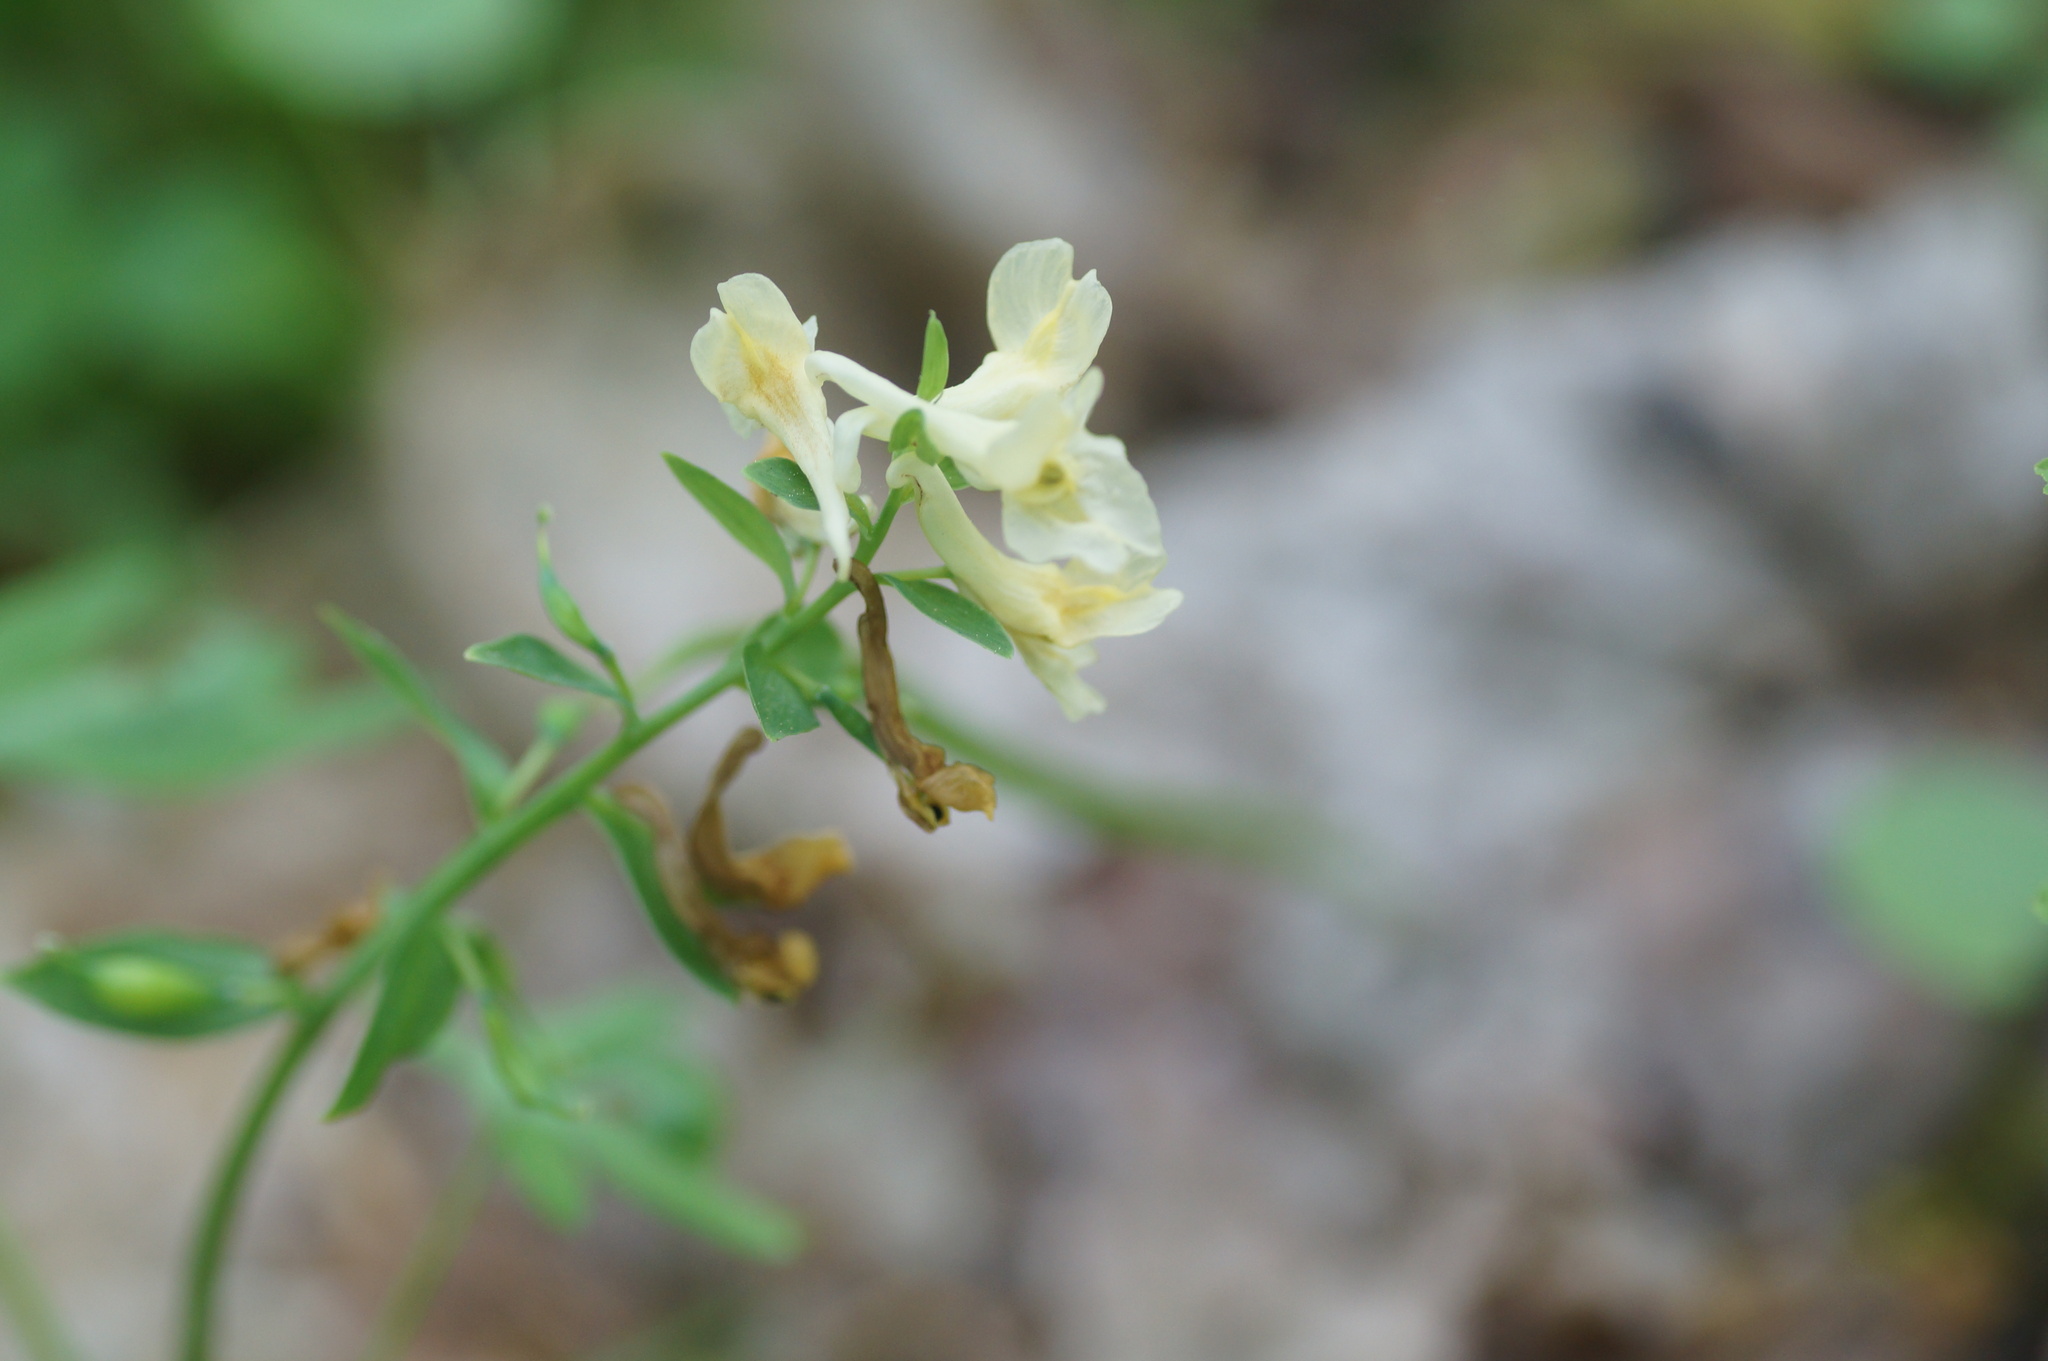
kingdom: Plantae
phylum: Tracheophyta
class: Magnoliopsida
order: Ranunculales
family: Papaveraceae
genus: Corydalis
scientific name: Corydalis cava
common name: Hollowroot
